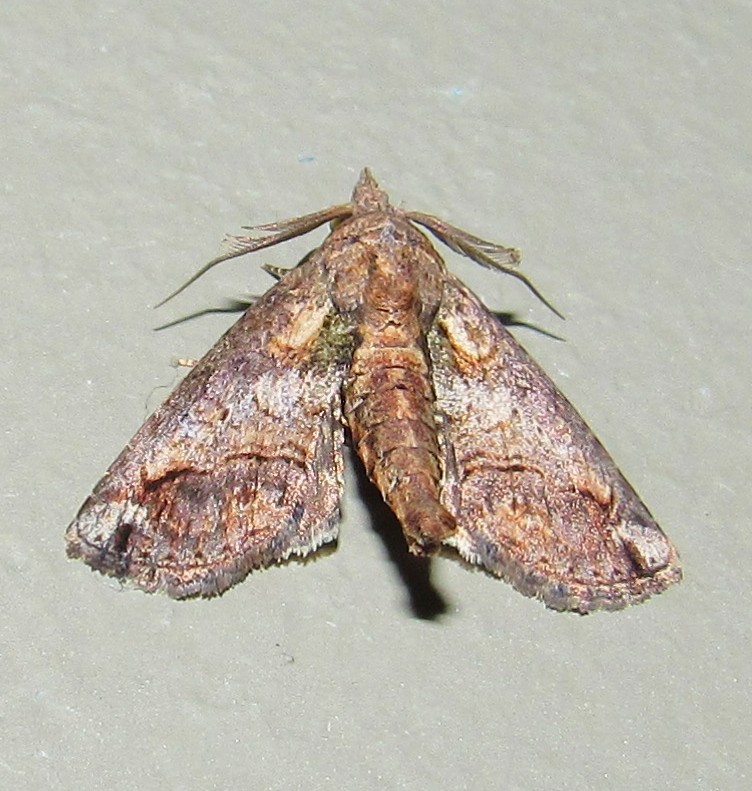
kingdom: Animalia
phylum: Arthropoda
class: Insecta
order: Lepidoptera
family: Euteliidae
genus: Paectes
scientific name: Paectes nubifera
